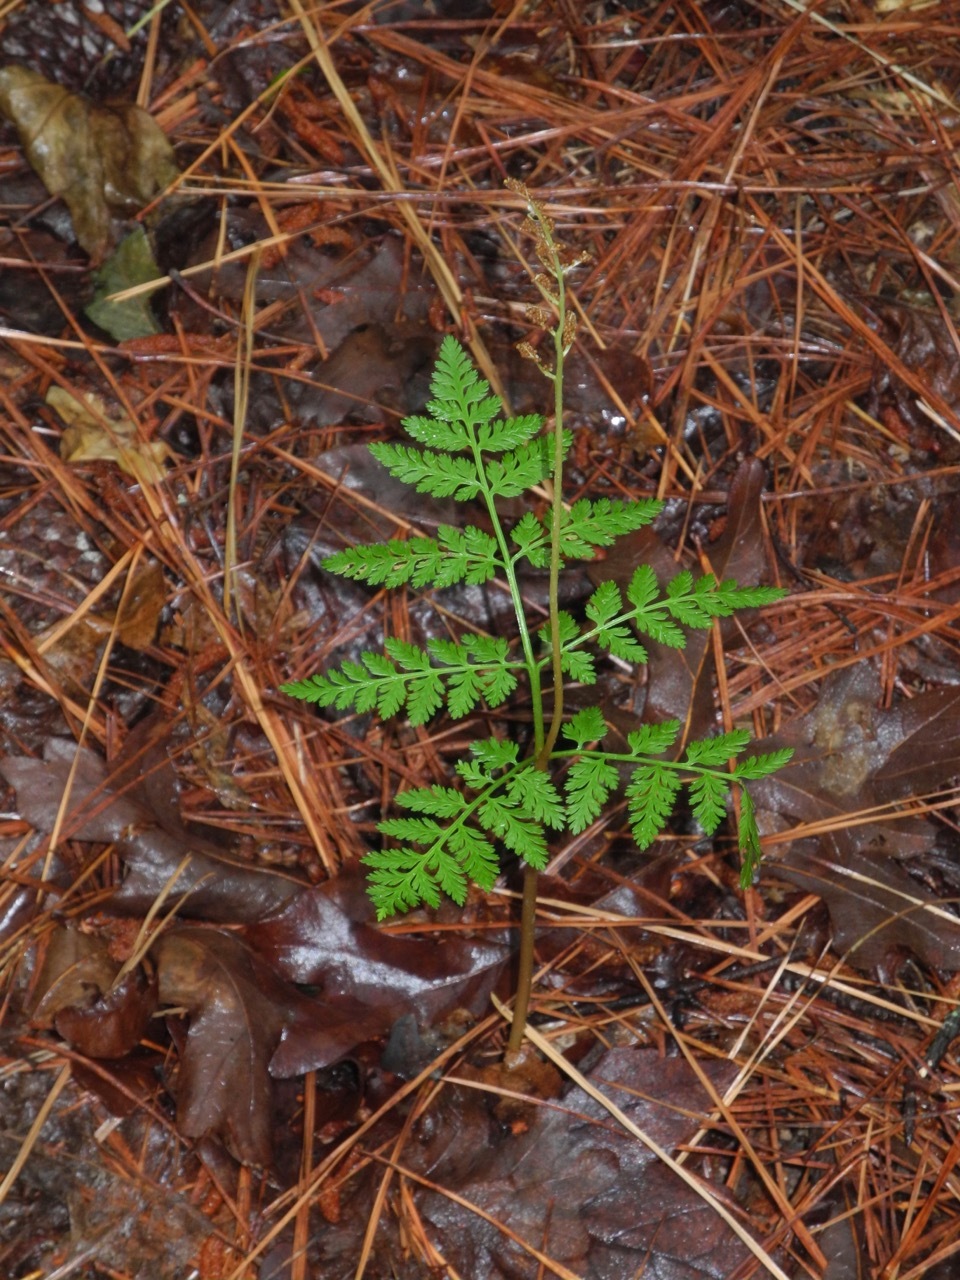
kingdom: Plantae
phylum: Tracheophyta
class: Polypodiopsida
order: Ophioglossales
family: Ophioglossaceae
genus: Botrypus
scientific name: Botrypus virginianus
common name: Common grapefern
